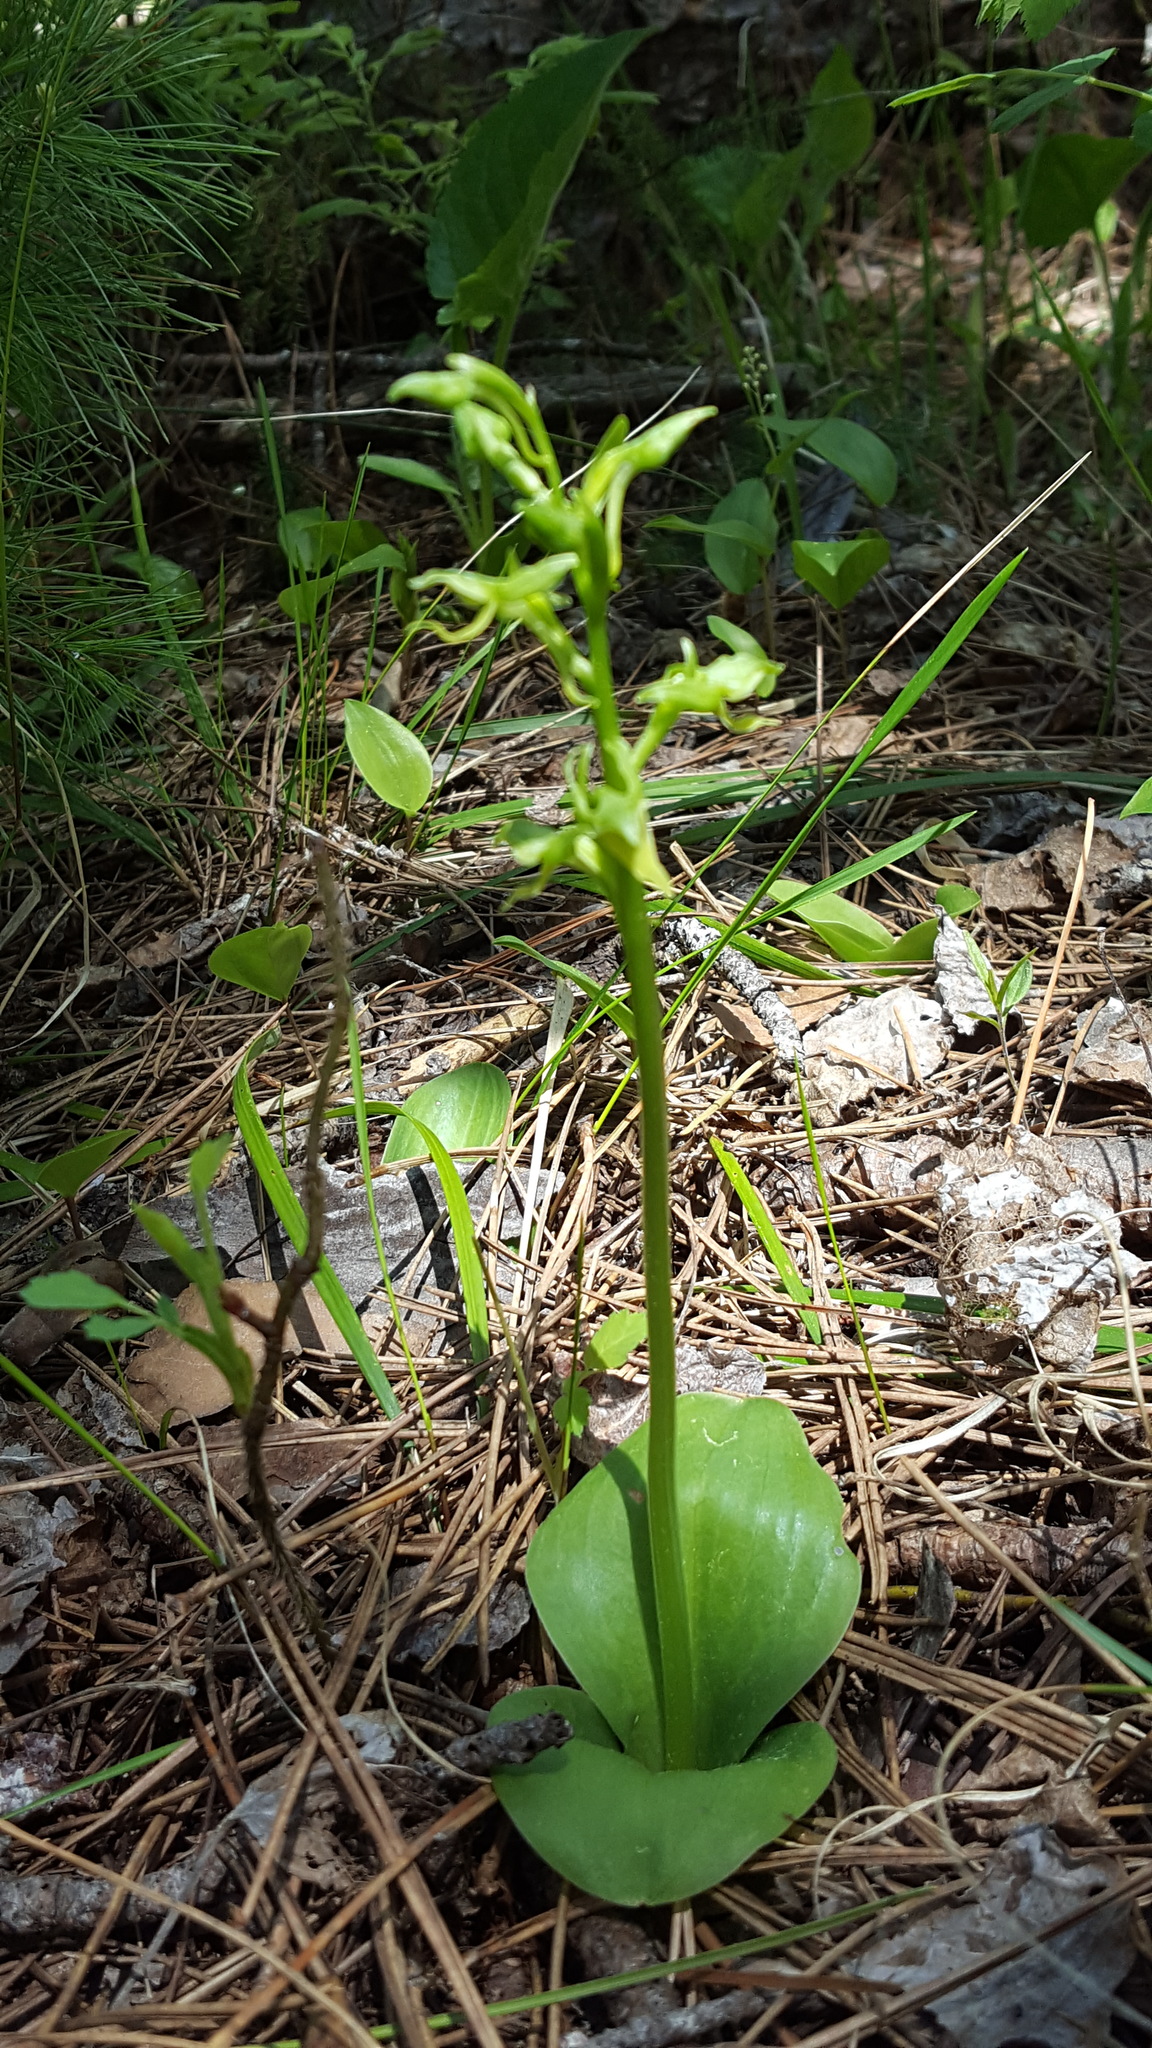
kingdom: Plantae
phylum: Tracheophyta
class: Liliopsida
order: Asparagales
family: Orchidaceae
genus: Platanthera
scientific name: Platanthera hookeri
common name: Hooker's orchid
